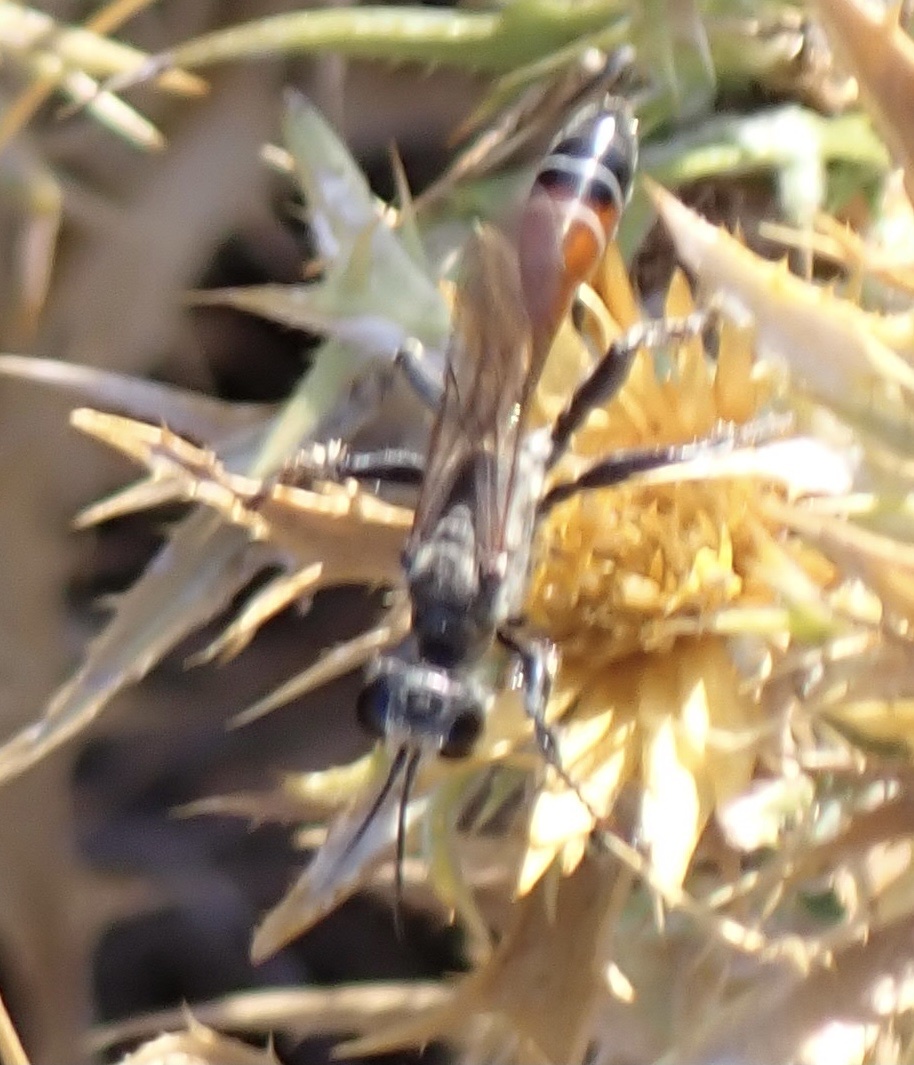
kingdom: Animalia
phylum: Arthropoda
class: Insecta
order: Hymenoptera
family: Sphecidae
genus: Prionyx
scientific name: Prionyx kirbii
